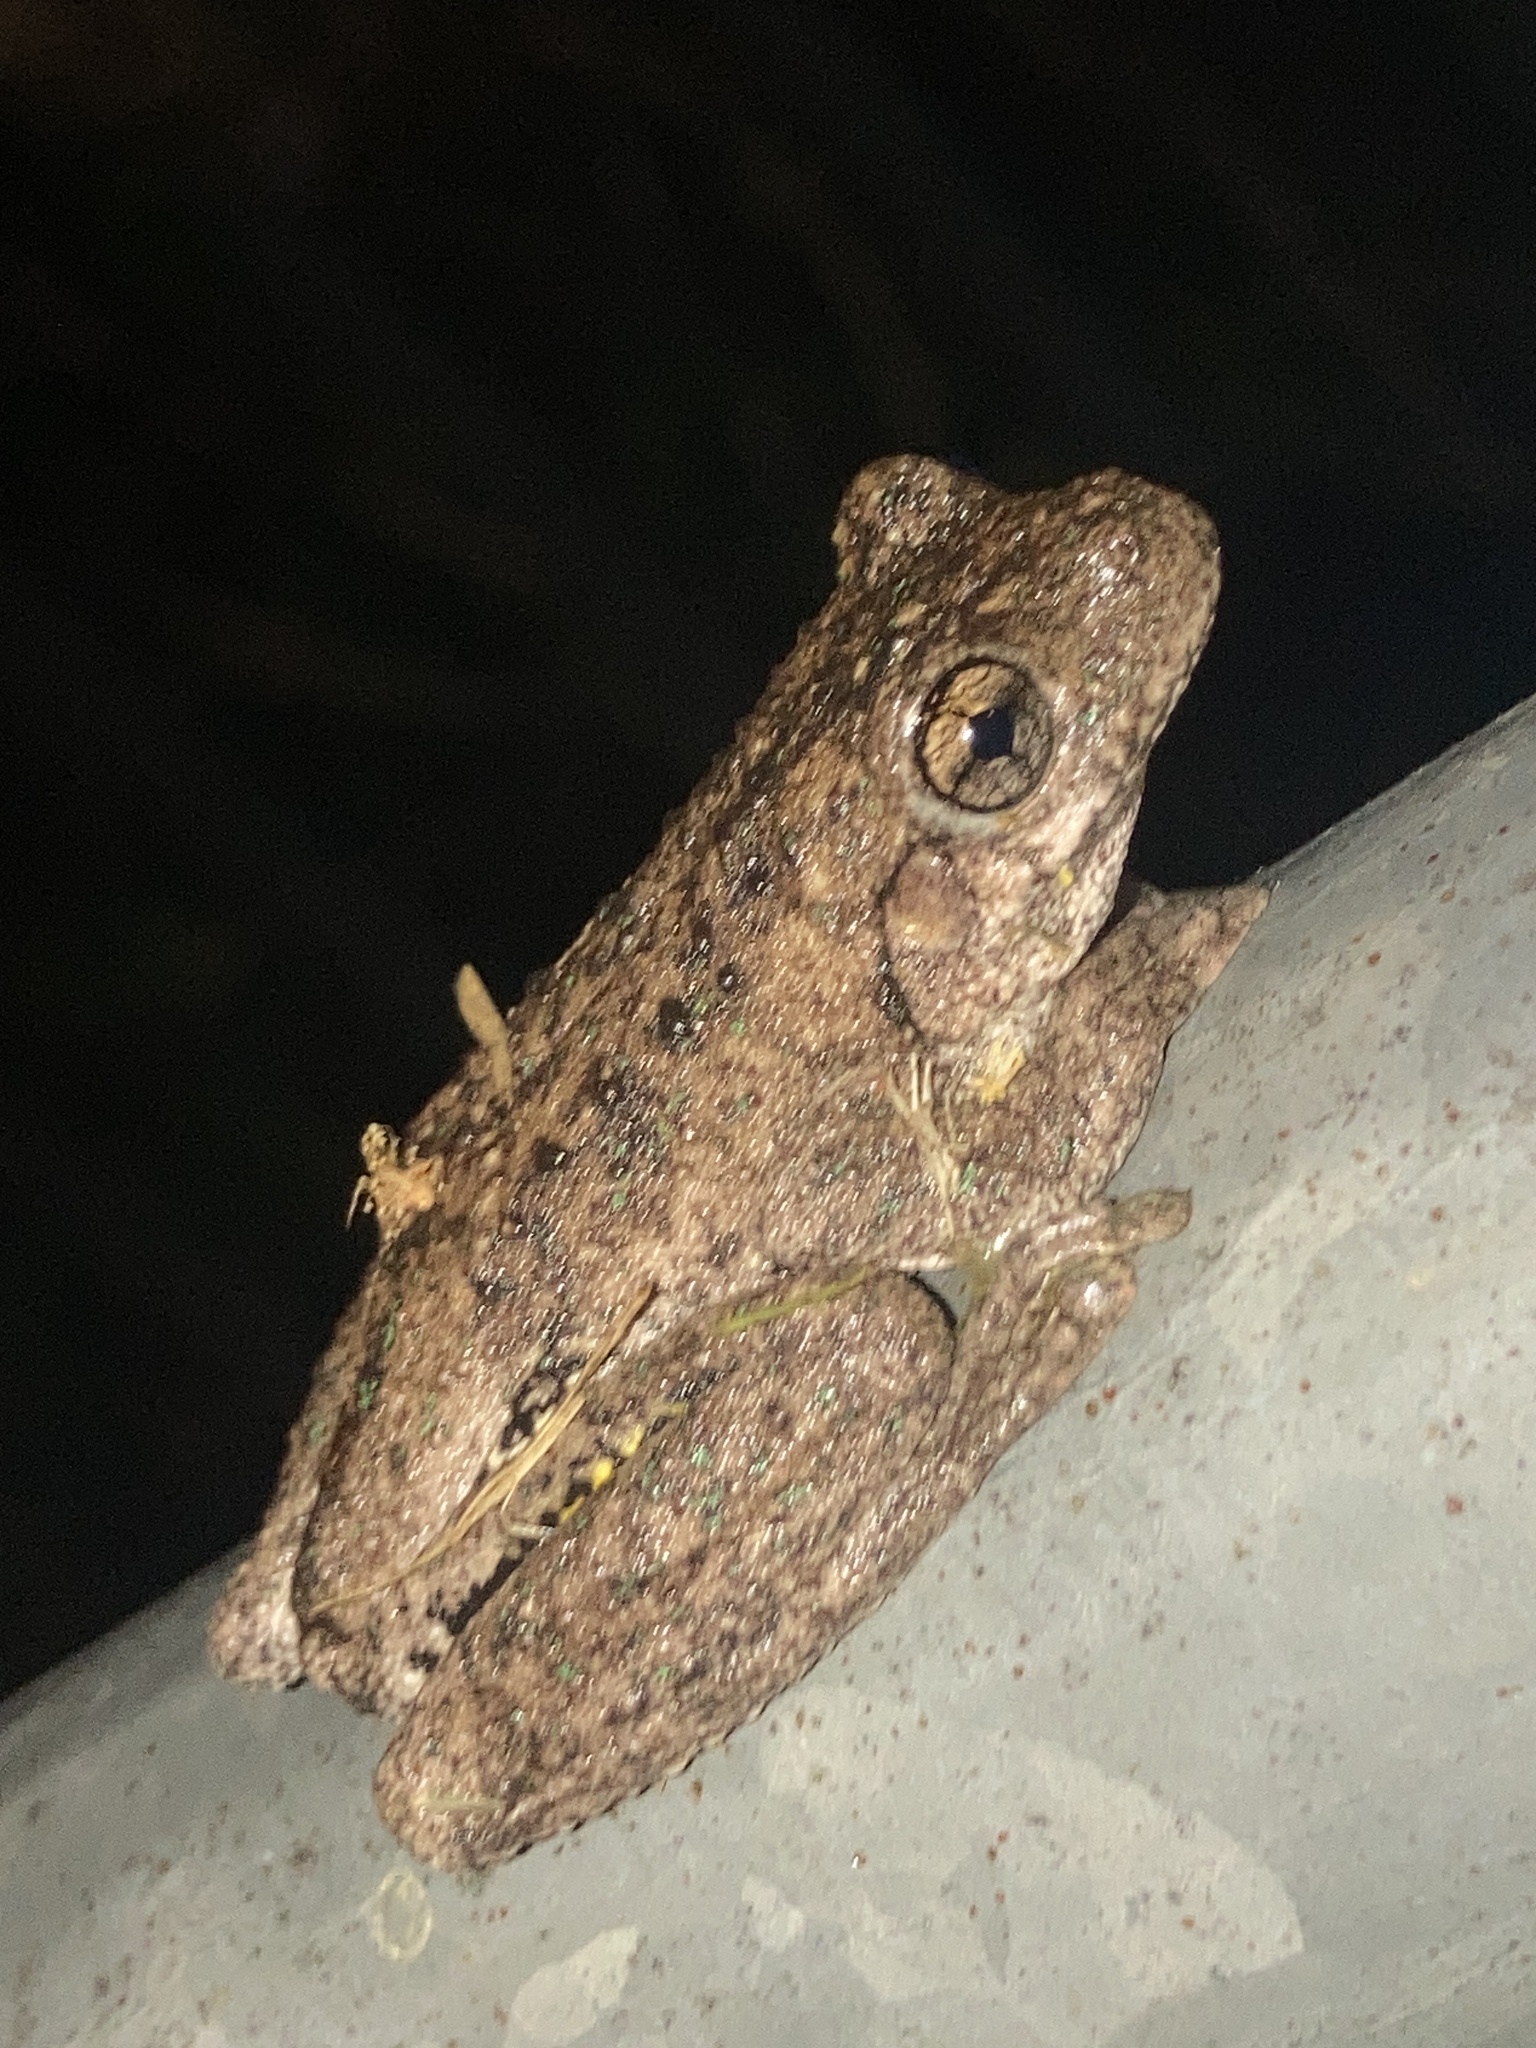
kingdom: Animalia
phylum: Chordata
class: Amphibia
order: Anura
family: Pelodryadidae
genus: Litoria
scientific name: Litoria peronii
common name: Emerald spotted treefrog
